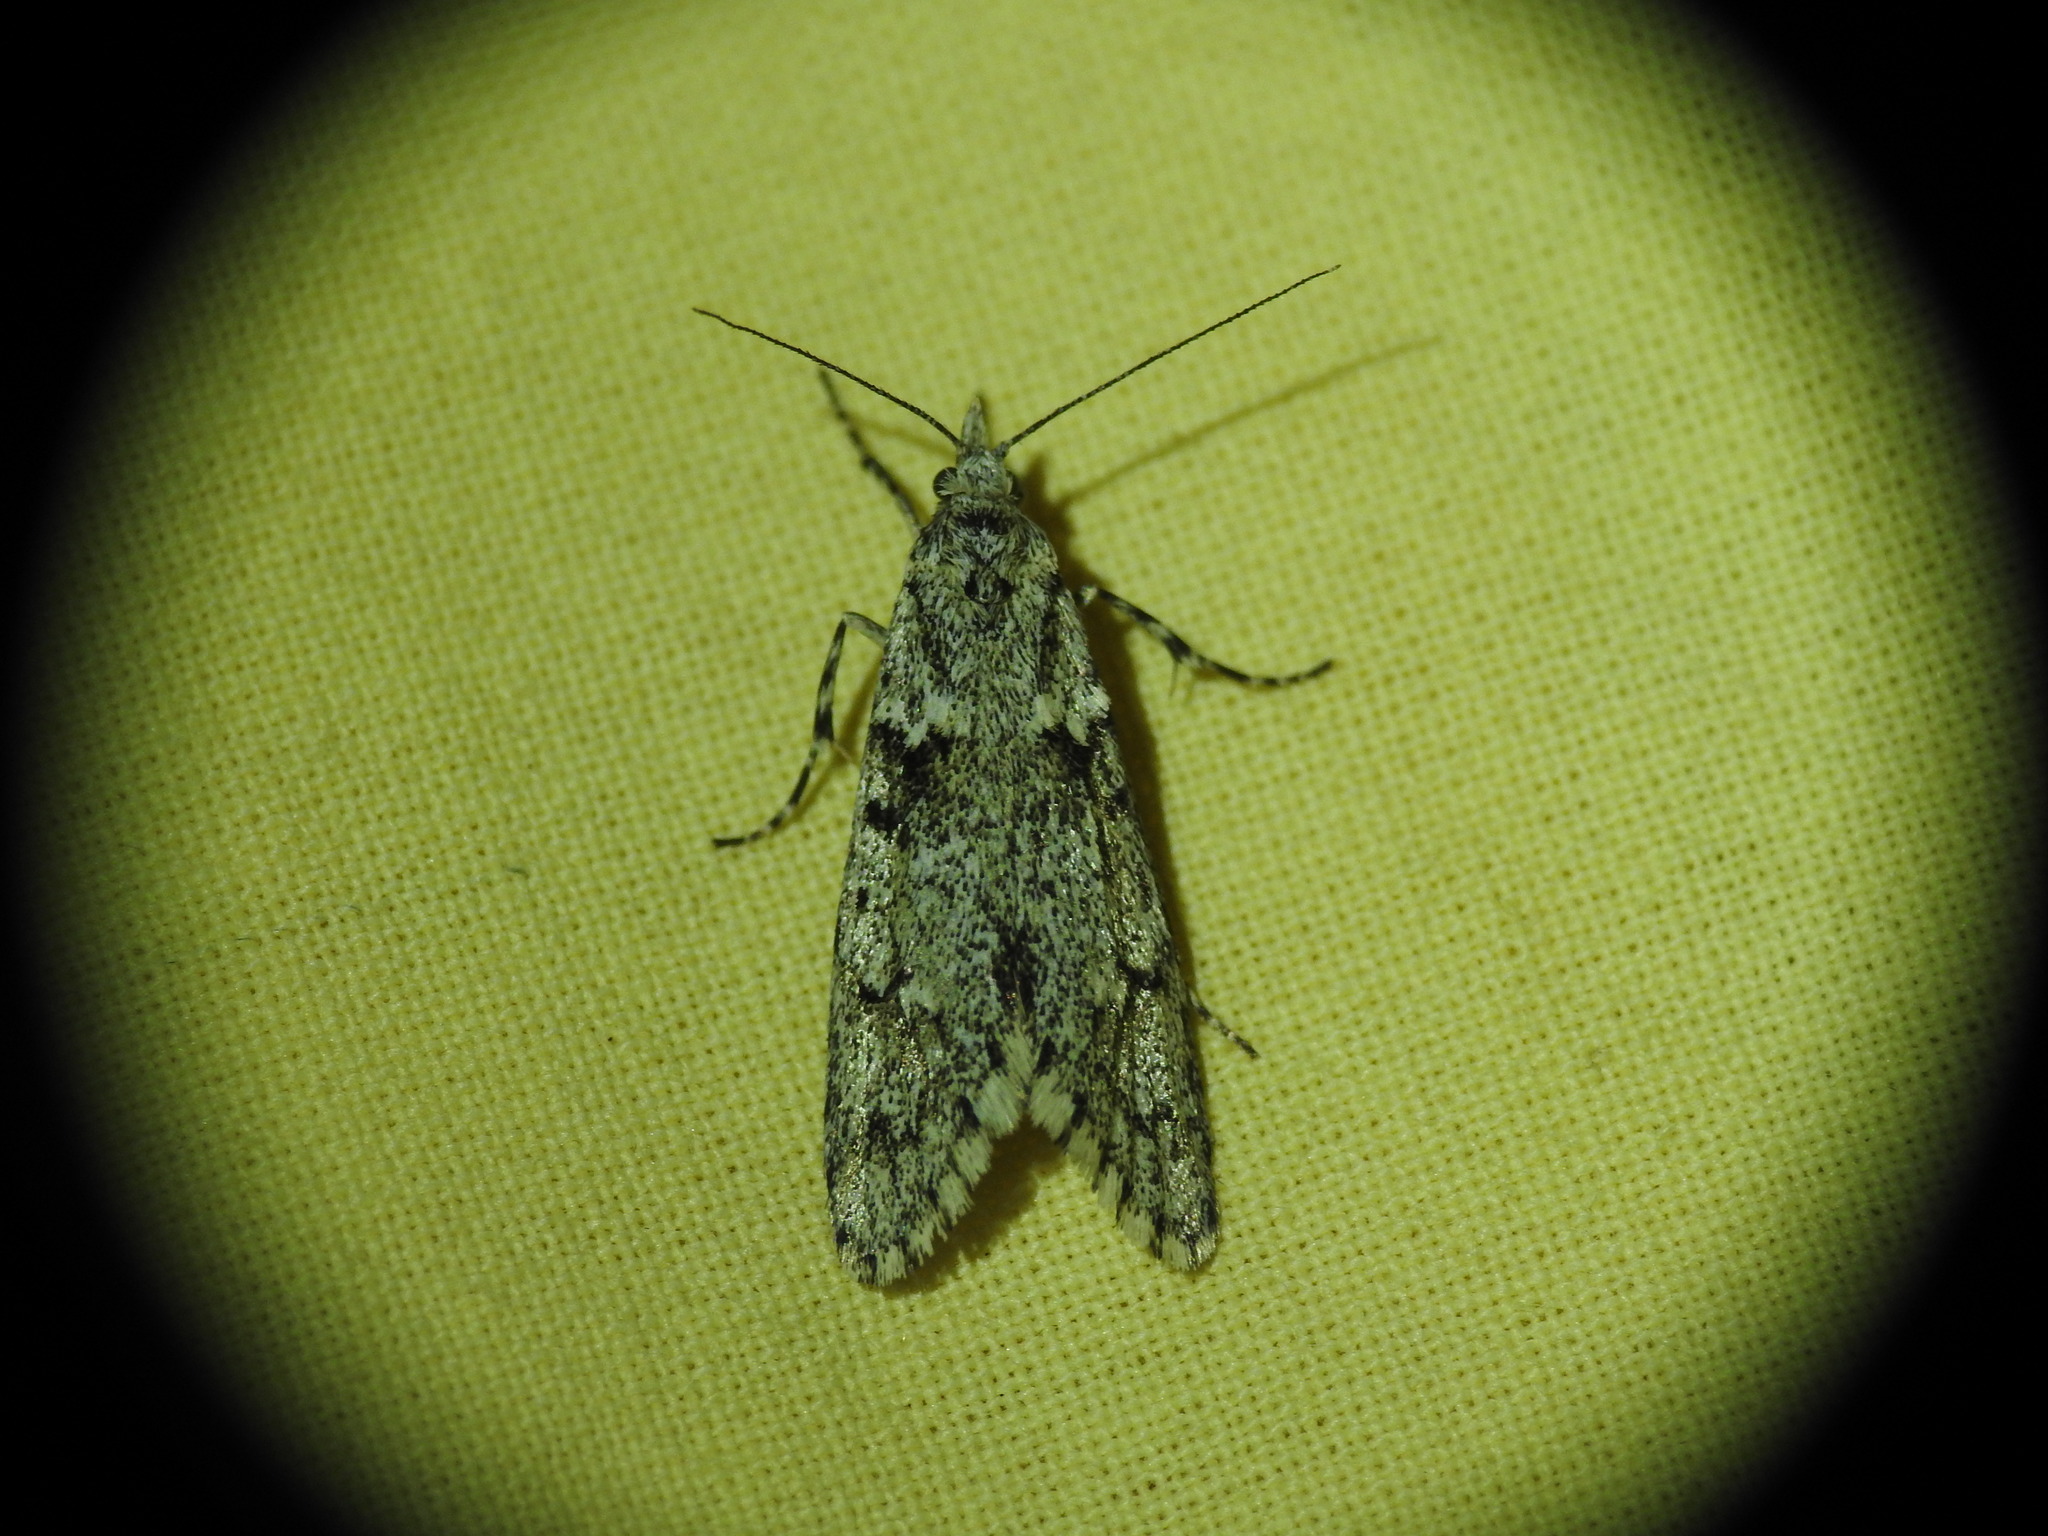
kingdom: Animalia
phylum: Arthropoda
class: Insecta
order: Lepidoptera
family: Lypusidae
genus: Diurnea
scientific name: Diurnea fagella
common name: March tubic
